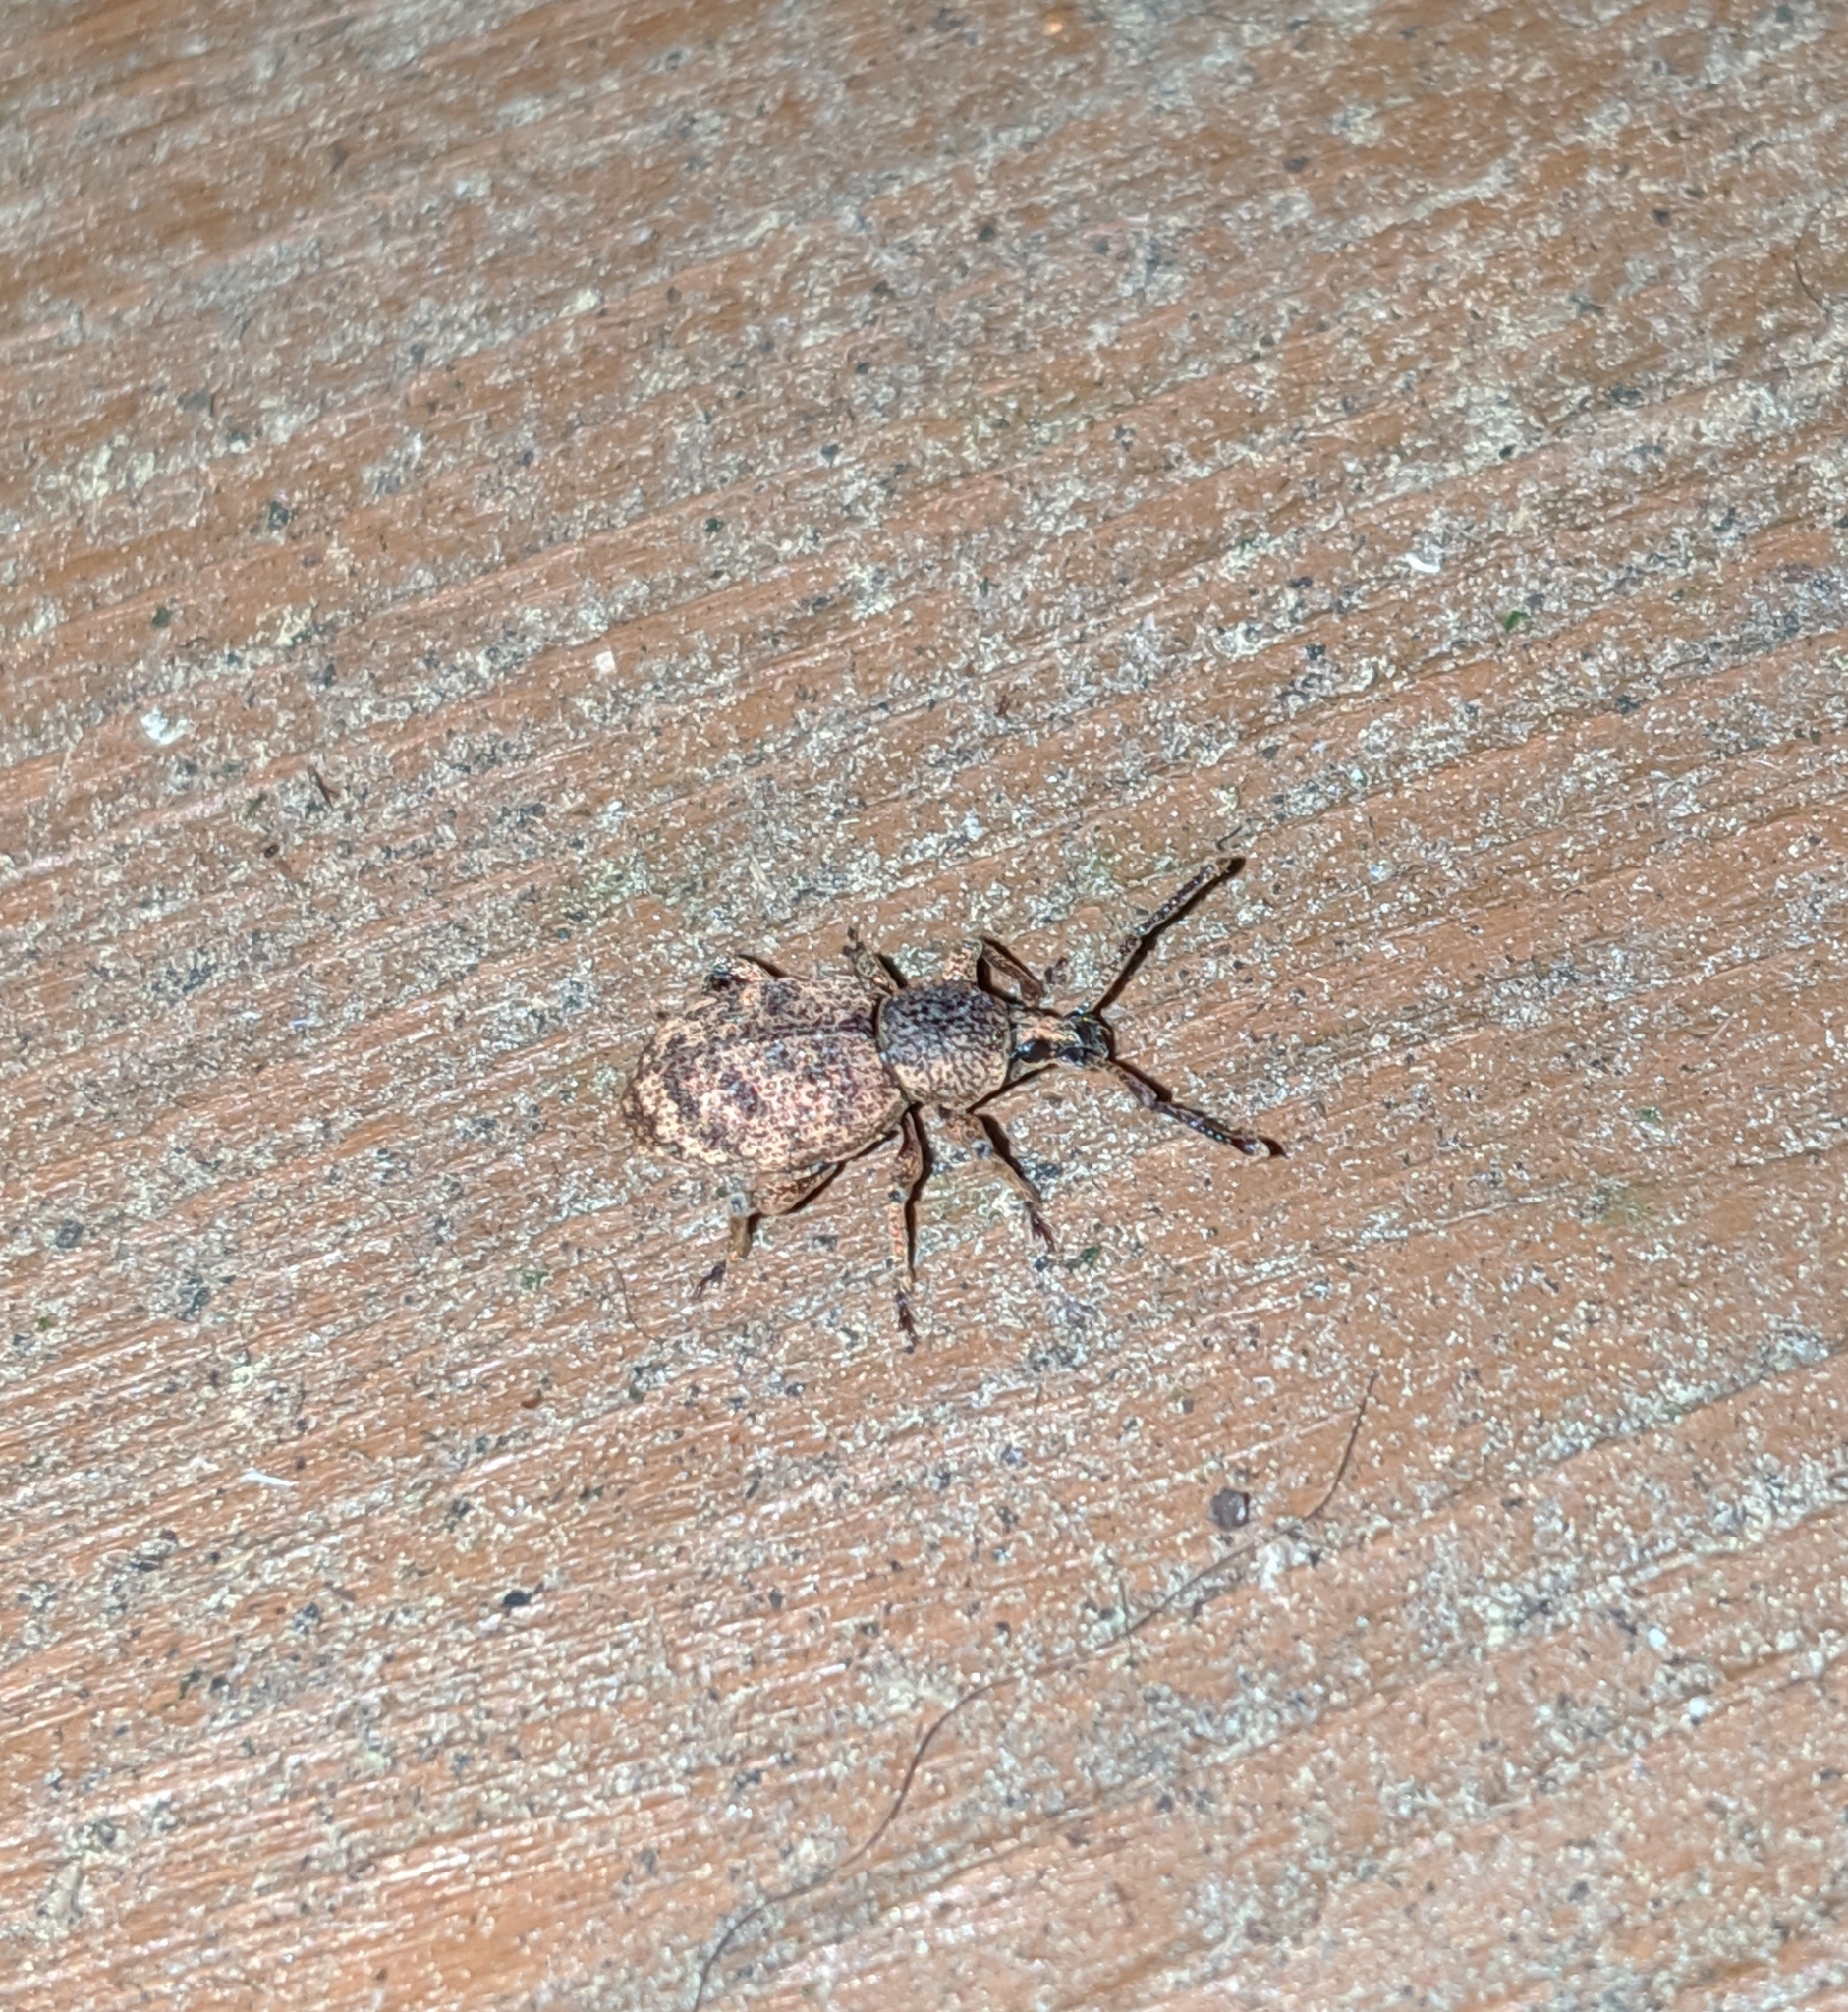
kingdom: Animalia
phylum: Arthropoda
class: Insecta
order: Coleoptera
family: Curculionidae
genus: Otiorhynchus
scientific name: Otiorhynchus singularis
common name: Clay-coloured weevil
